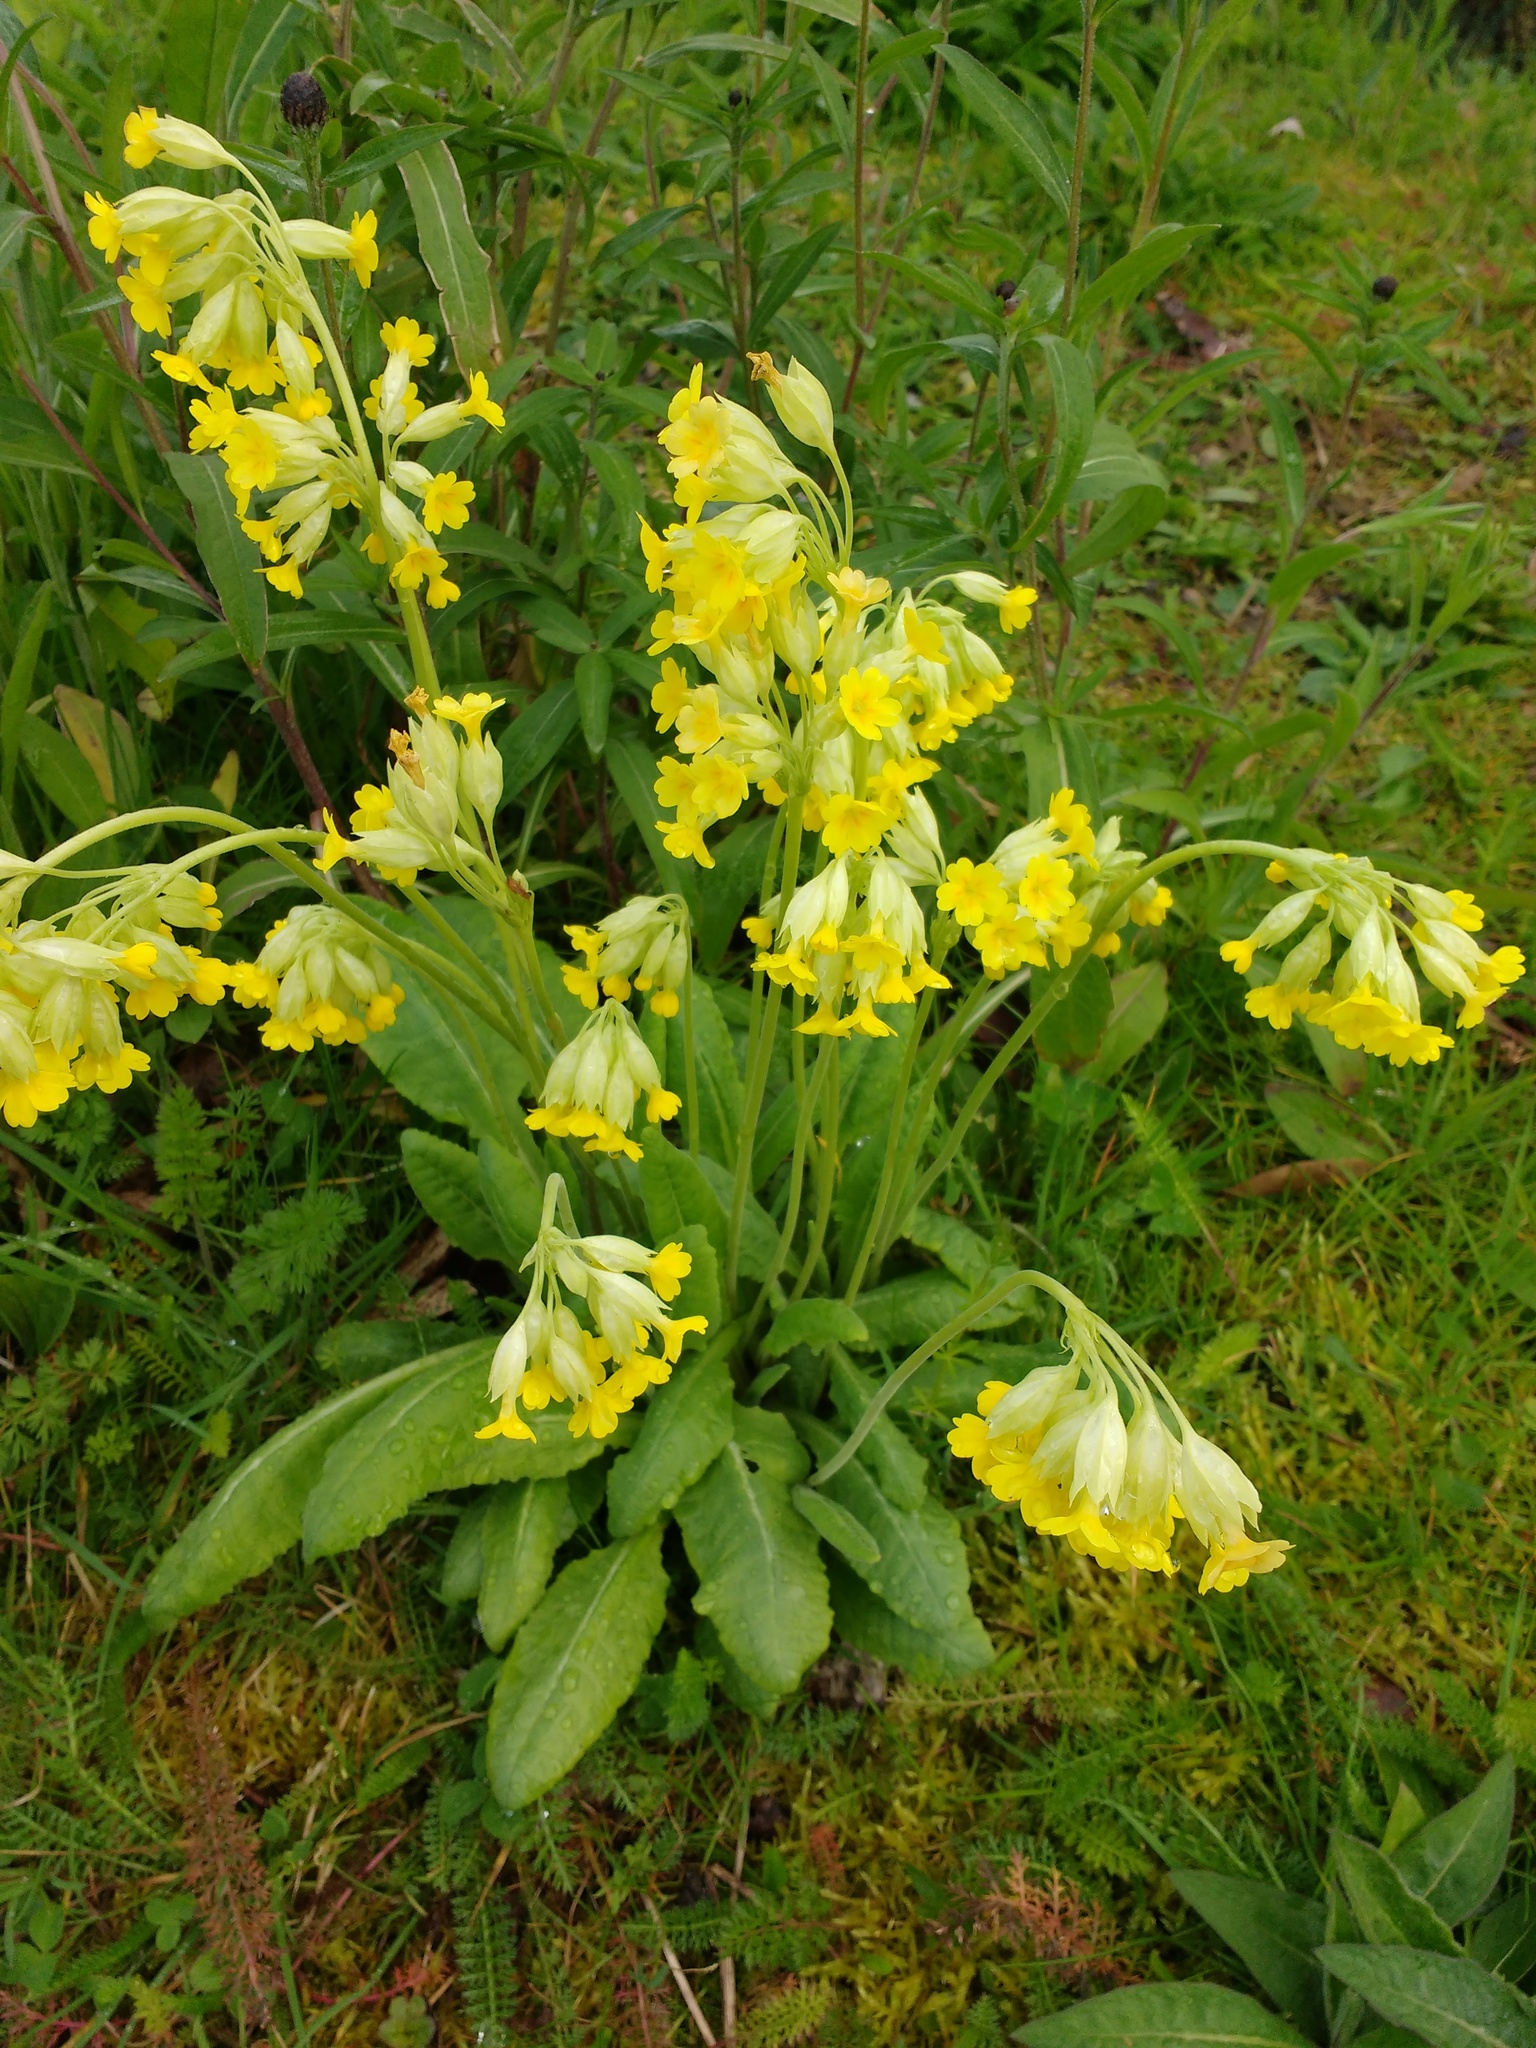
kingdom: Plantae
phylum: Tracheophyta
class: Magnoliopsida
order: Ericales
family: Primulaceae
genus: Primula
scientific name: Primula veris
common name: Cowslip
